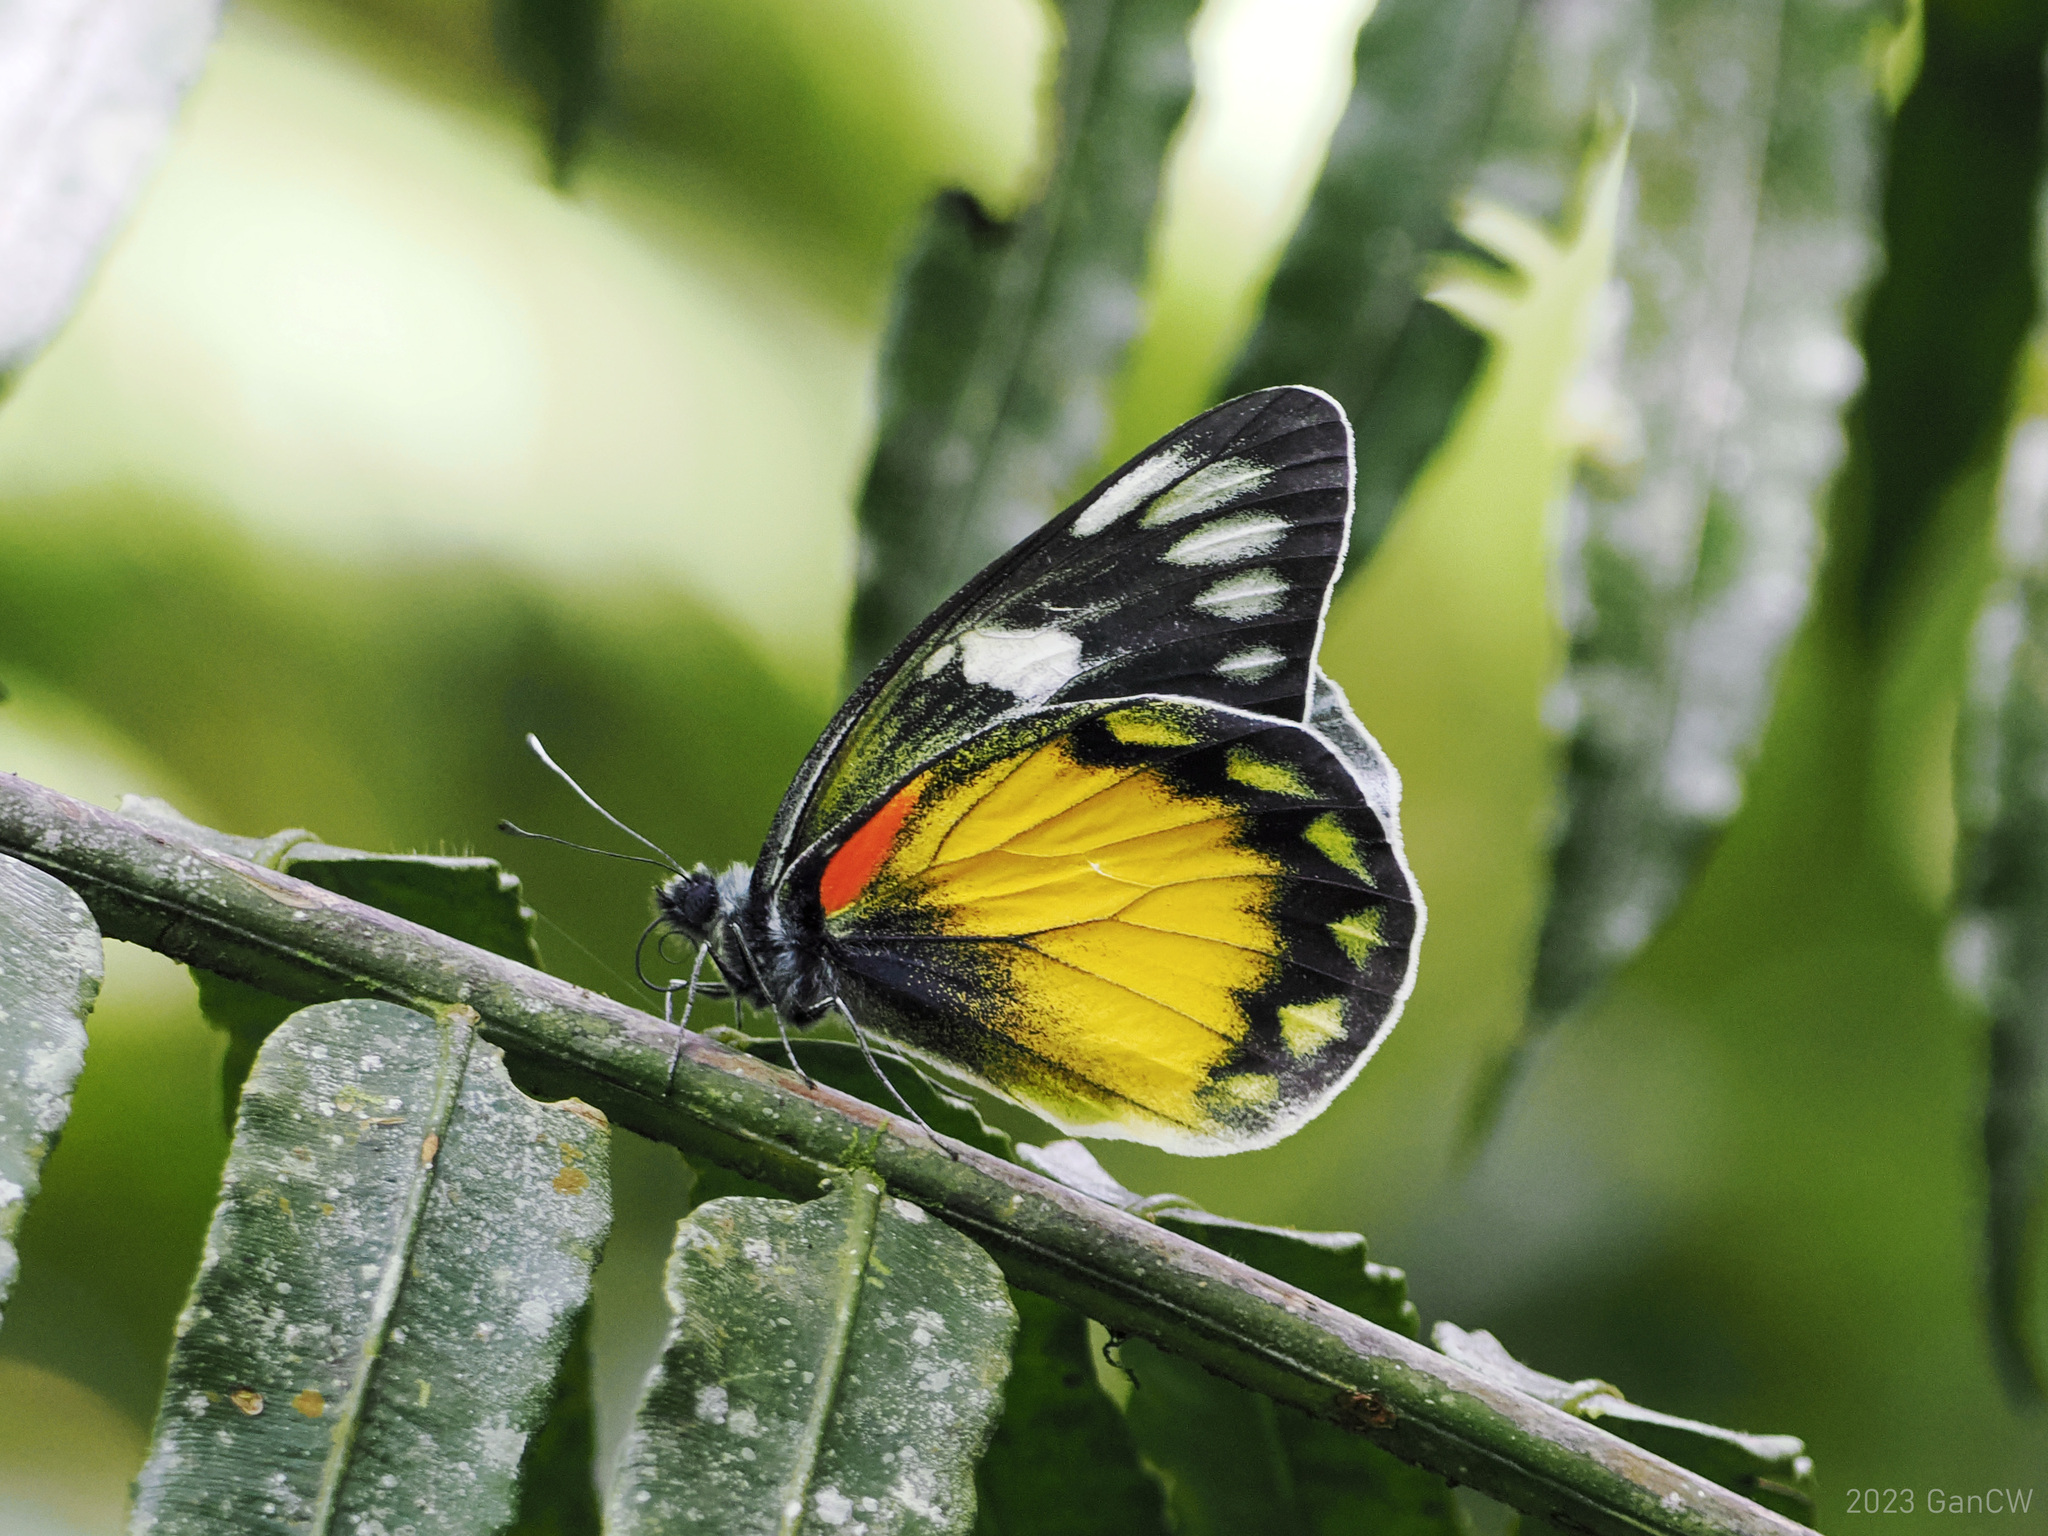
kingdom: Animalia
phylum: Arthropoda
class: Insecta
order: Lepidoptera
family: Pieridae
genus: Delias
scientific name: Delias zebuda
